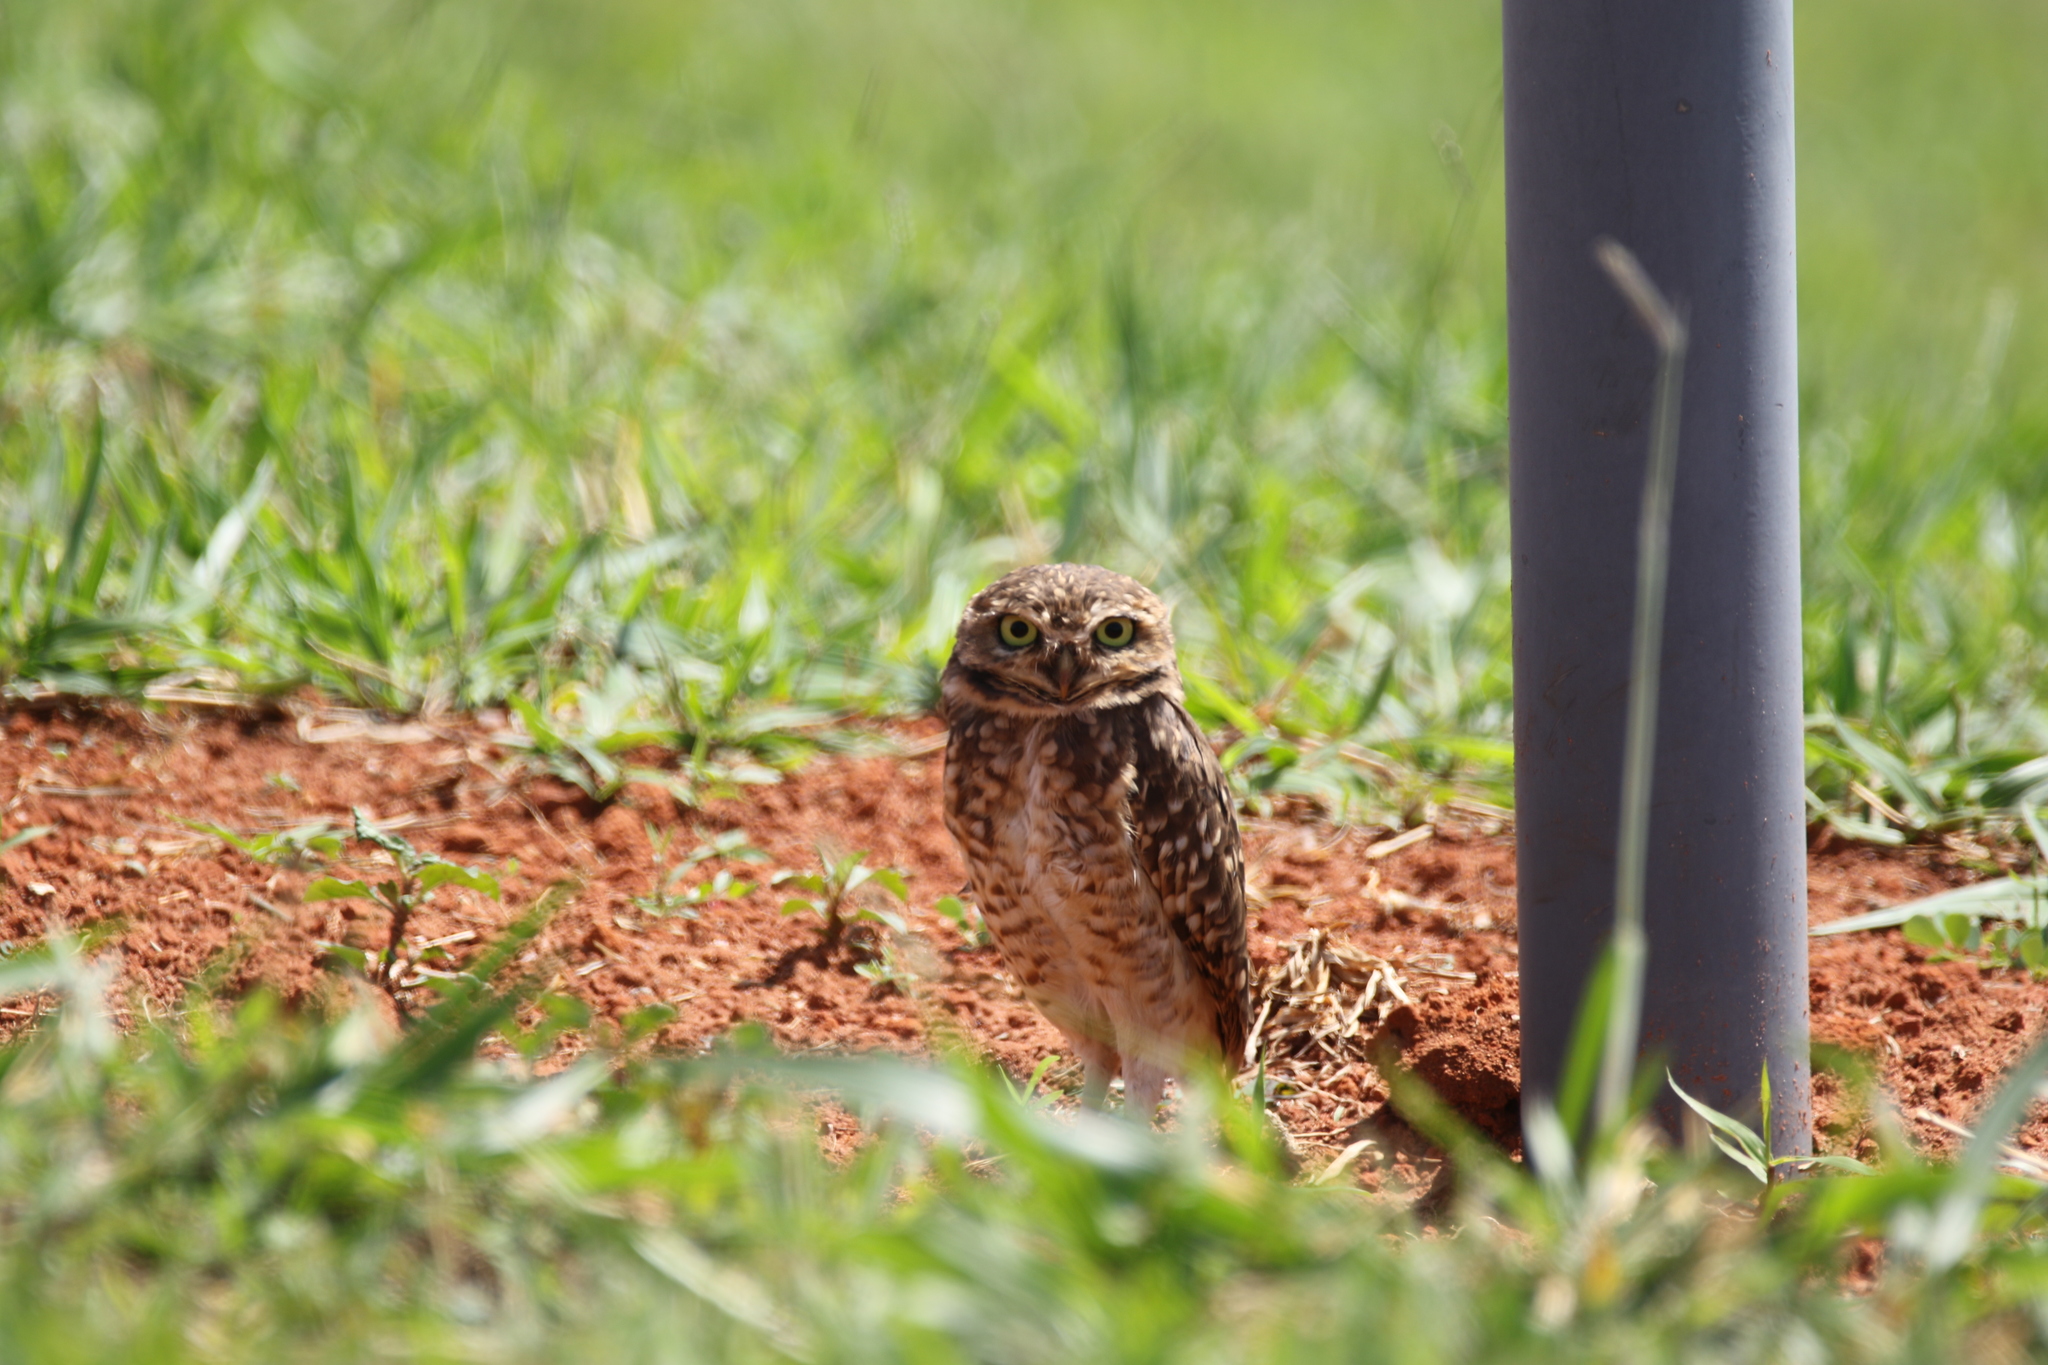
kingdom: Animalia
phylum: Chordata
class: Aves
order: Strigiformes
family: Strigidae
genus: Athene
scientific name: Athene cunicularia
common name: Burrowing owl
